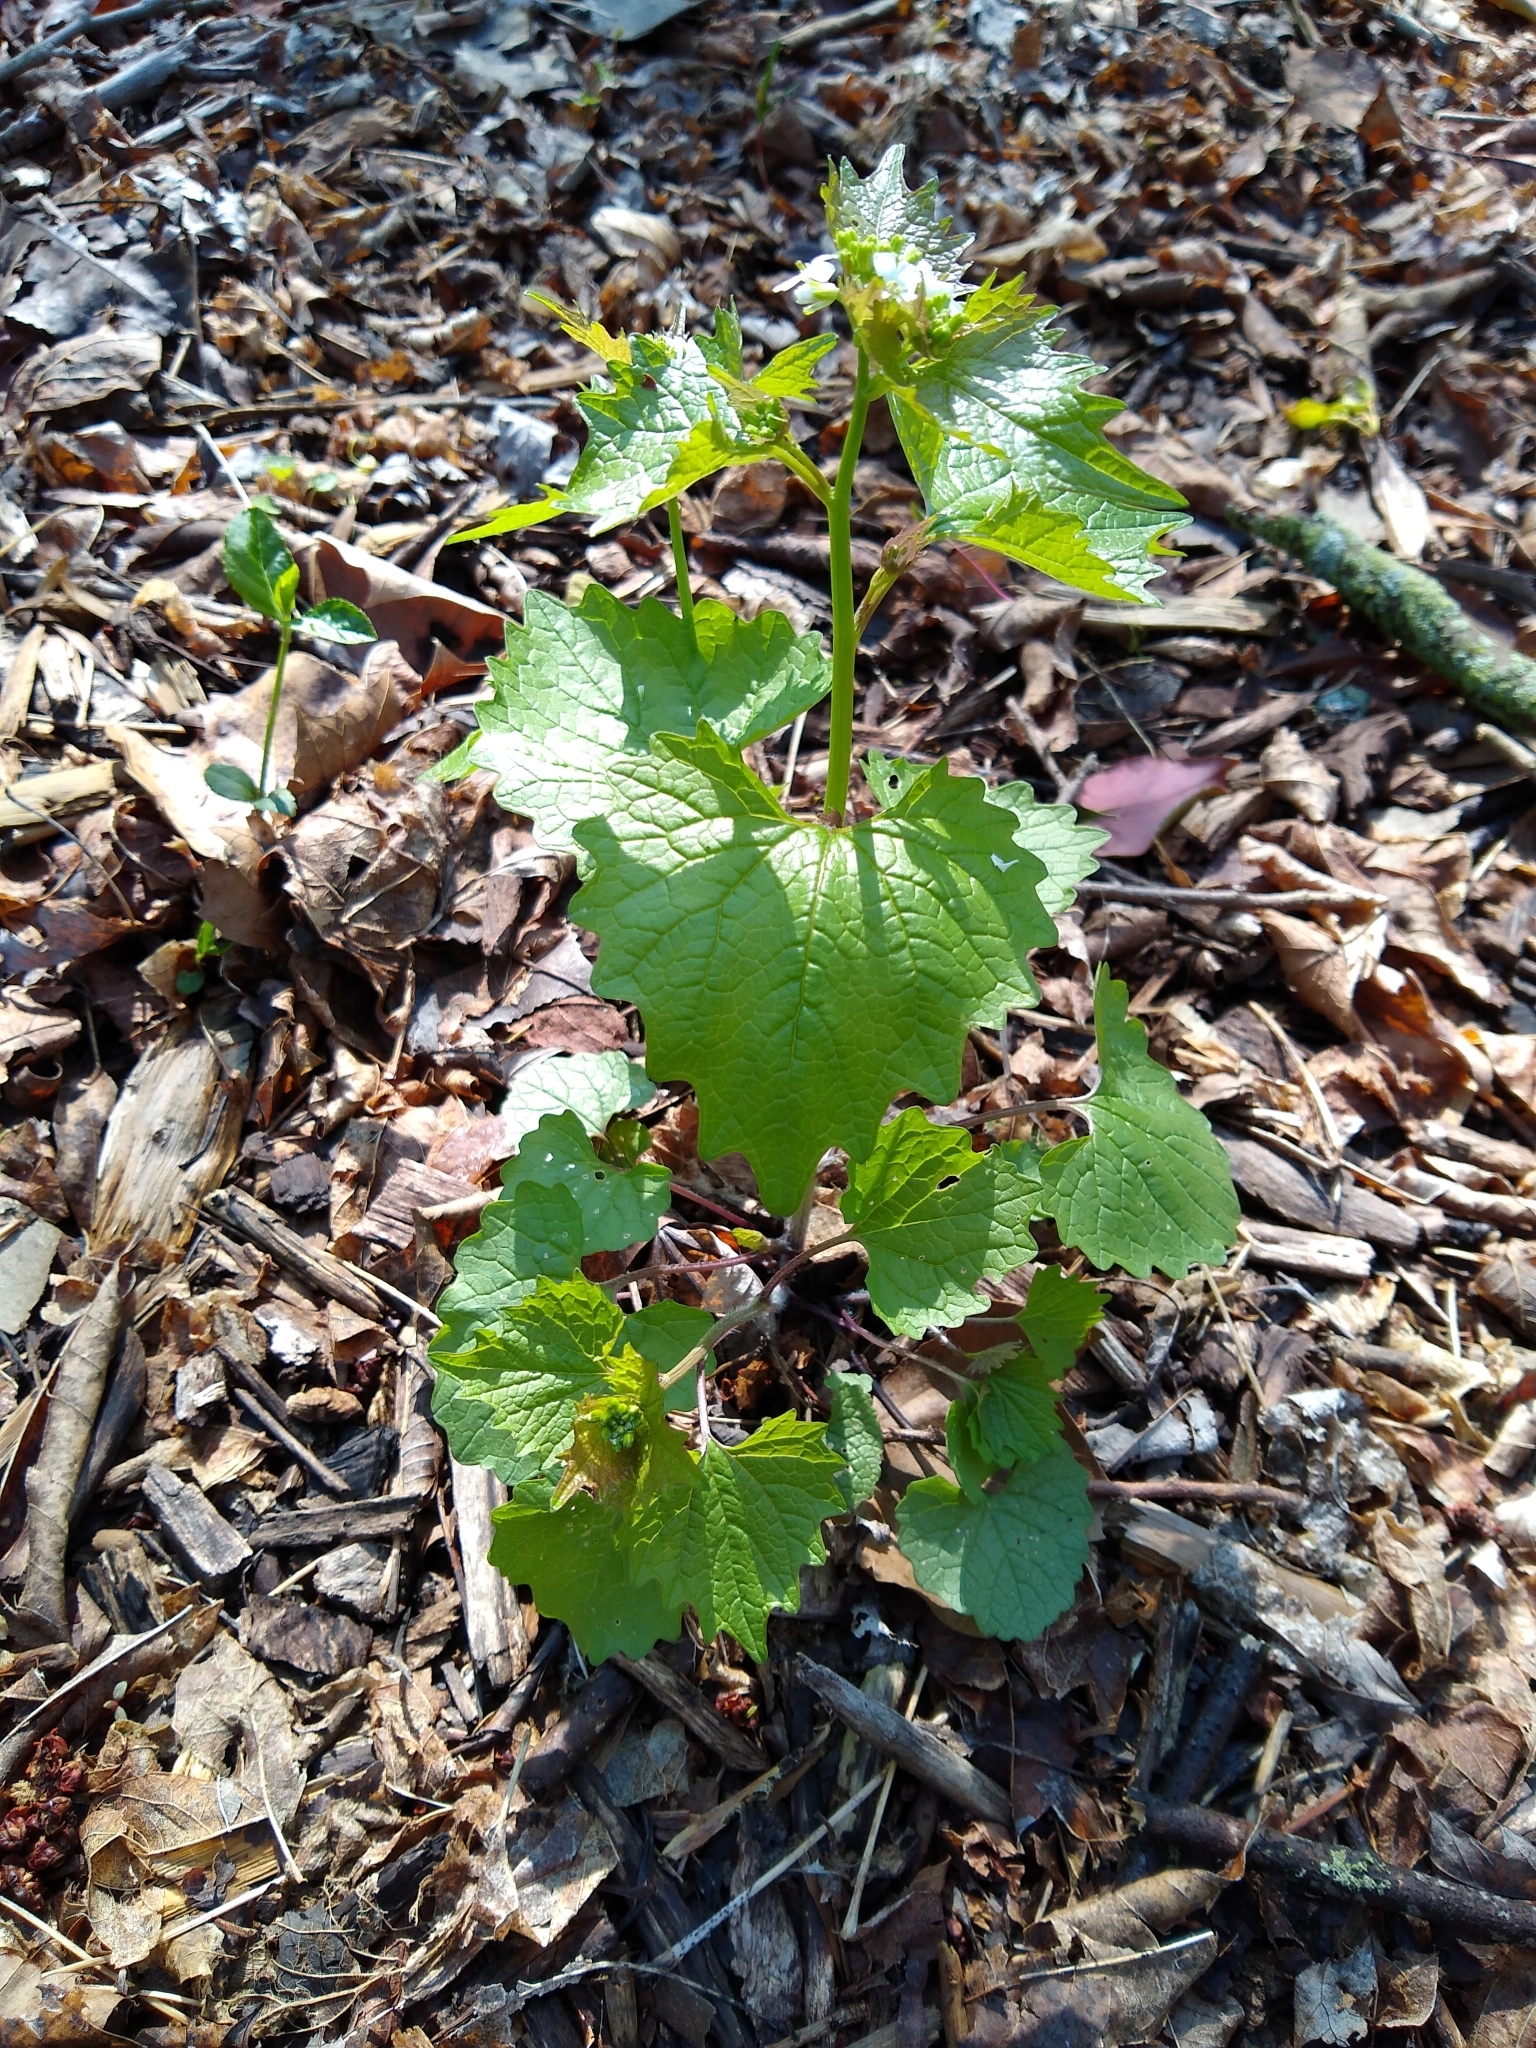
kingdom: Plantae
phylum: Tracheophyta
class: Magnoliopsida
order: Brassicales
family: Brassicaceae
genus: Alliaria
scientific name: Alliaria petiolata
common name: Garlic mustard
